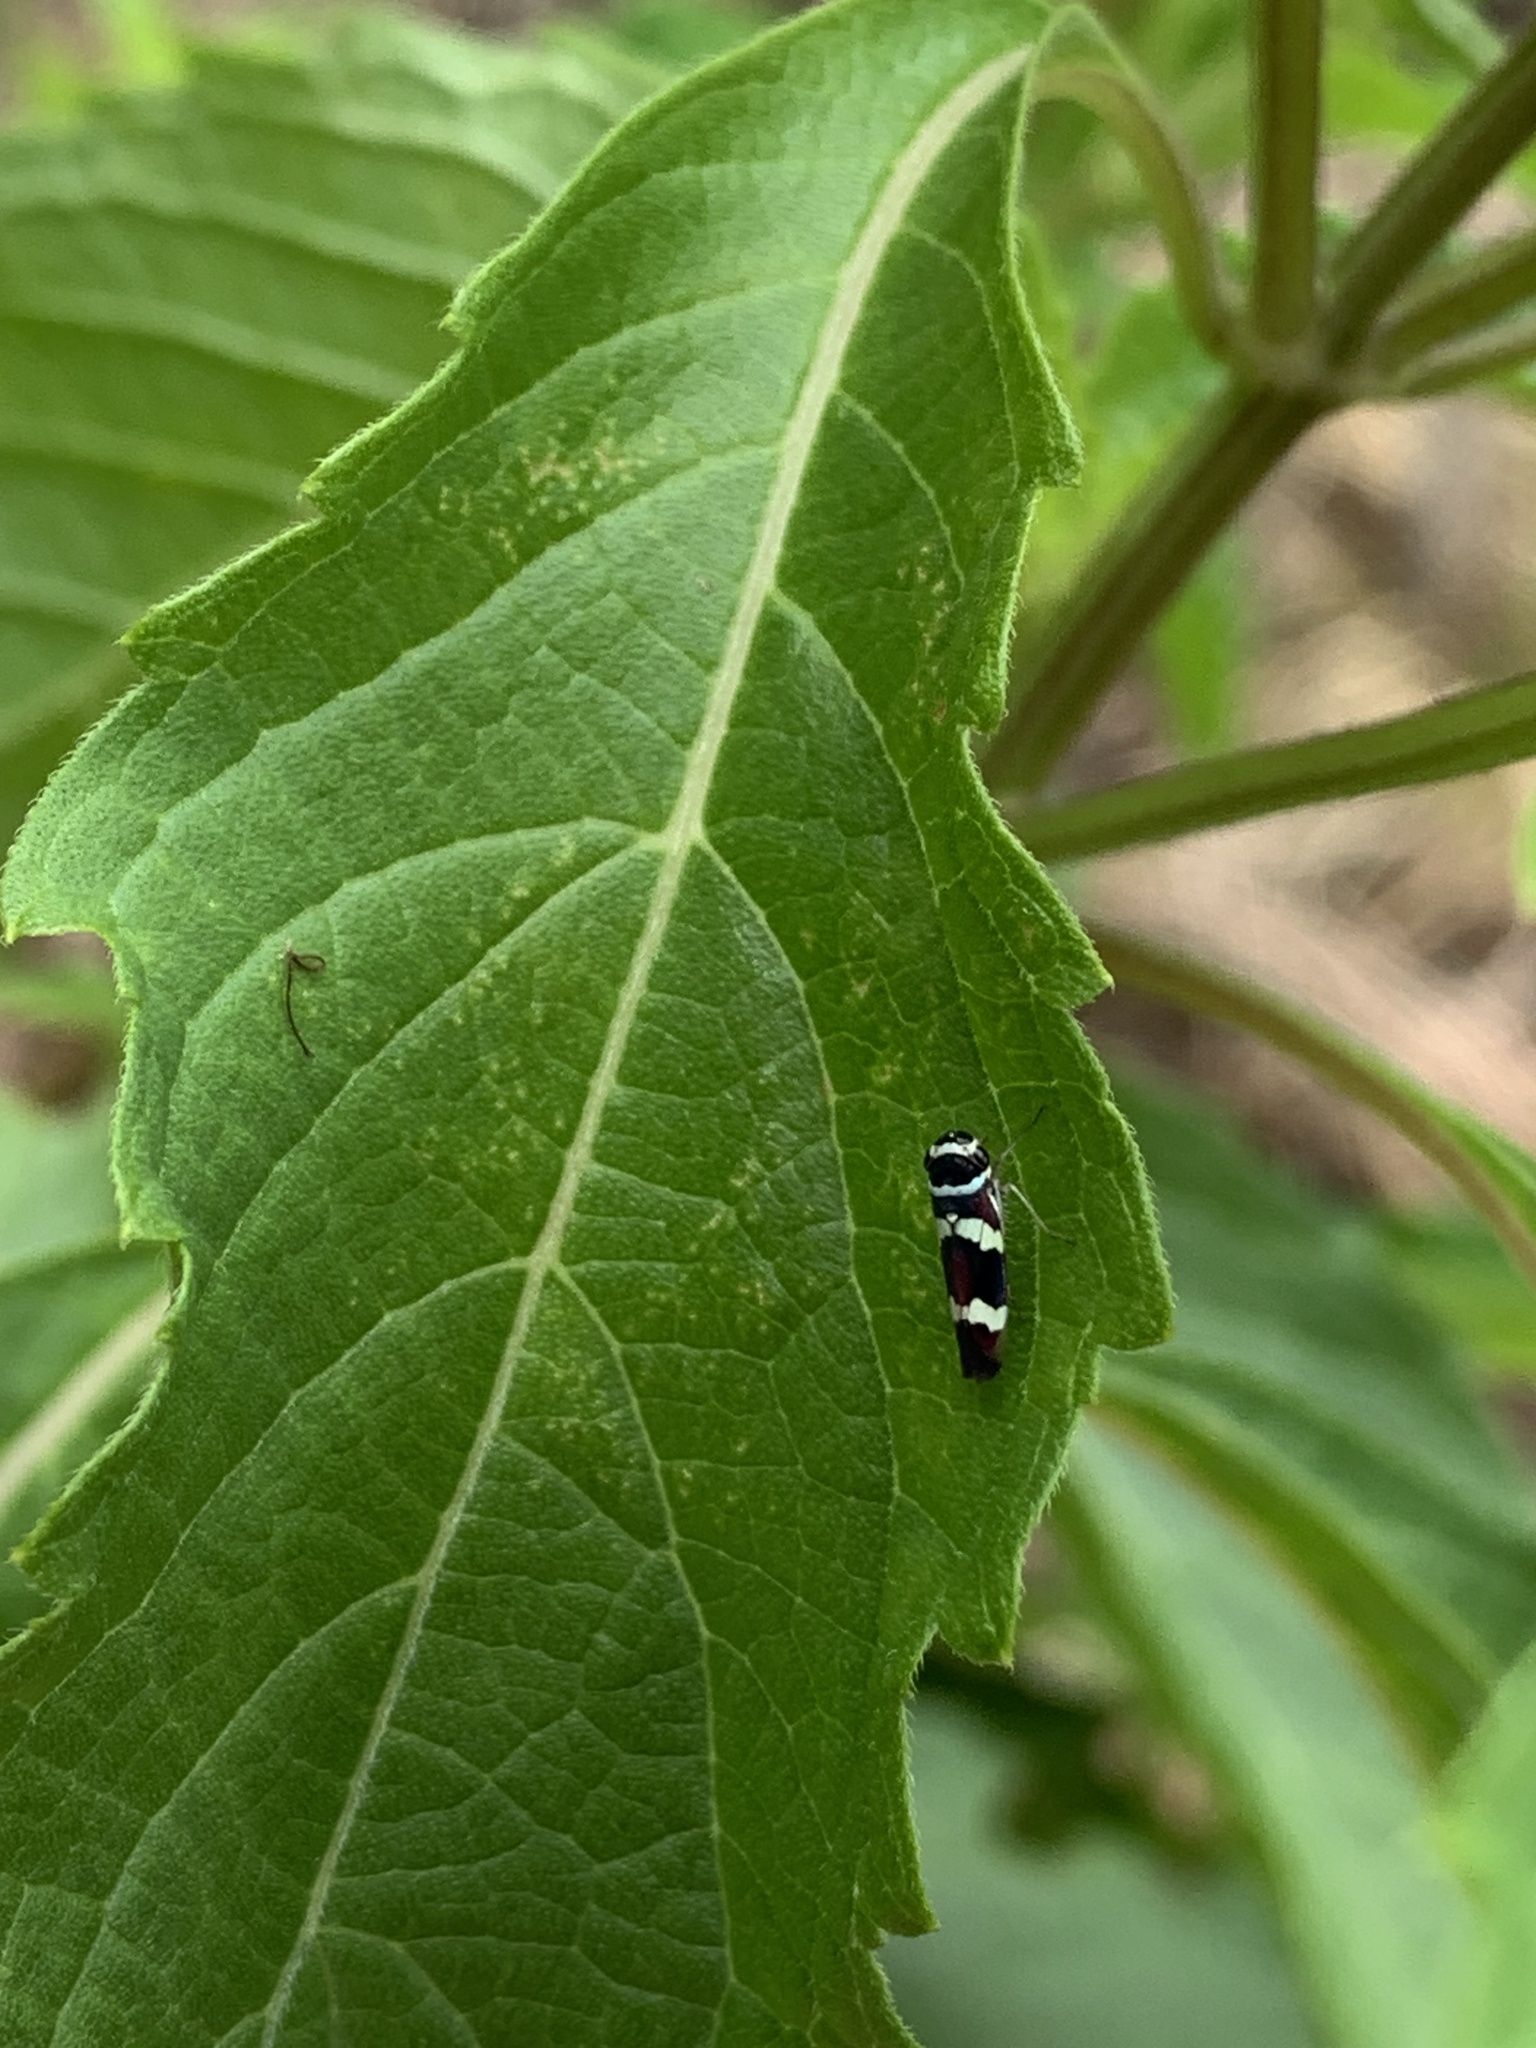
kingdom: Animalia
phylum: Arthropoda
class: Insecta
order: Hemiptera
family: Cicadellidae
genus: Macugonalia
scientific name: Macugonalia leucomelas
